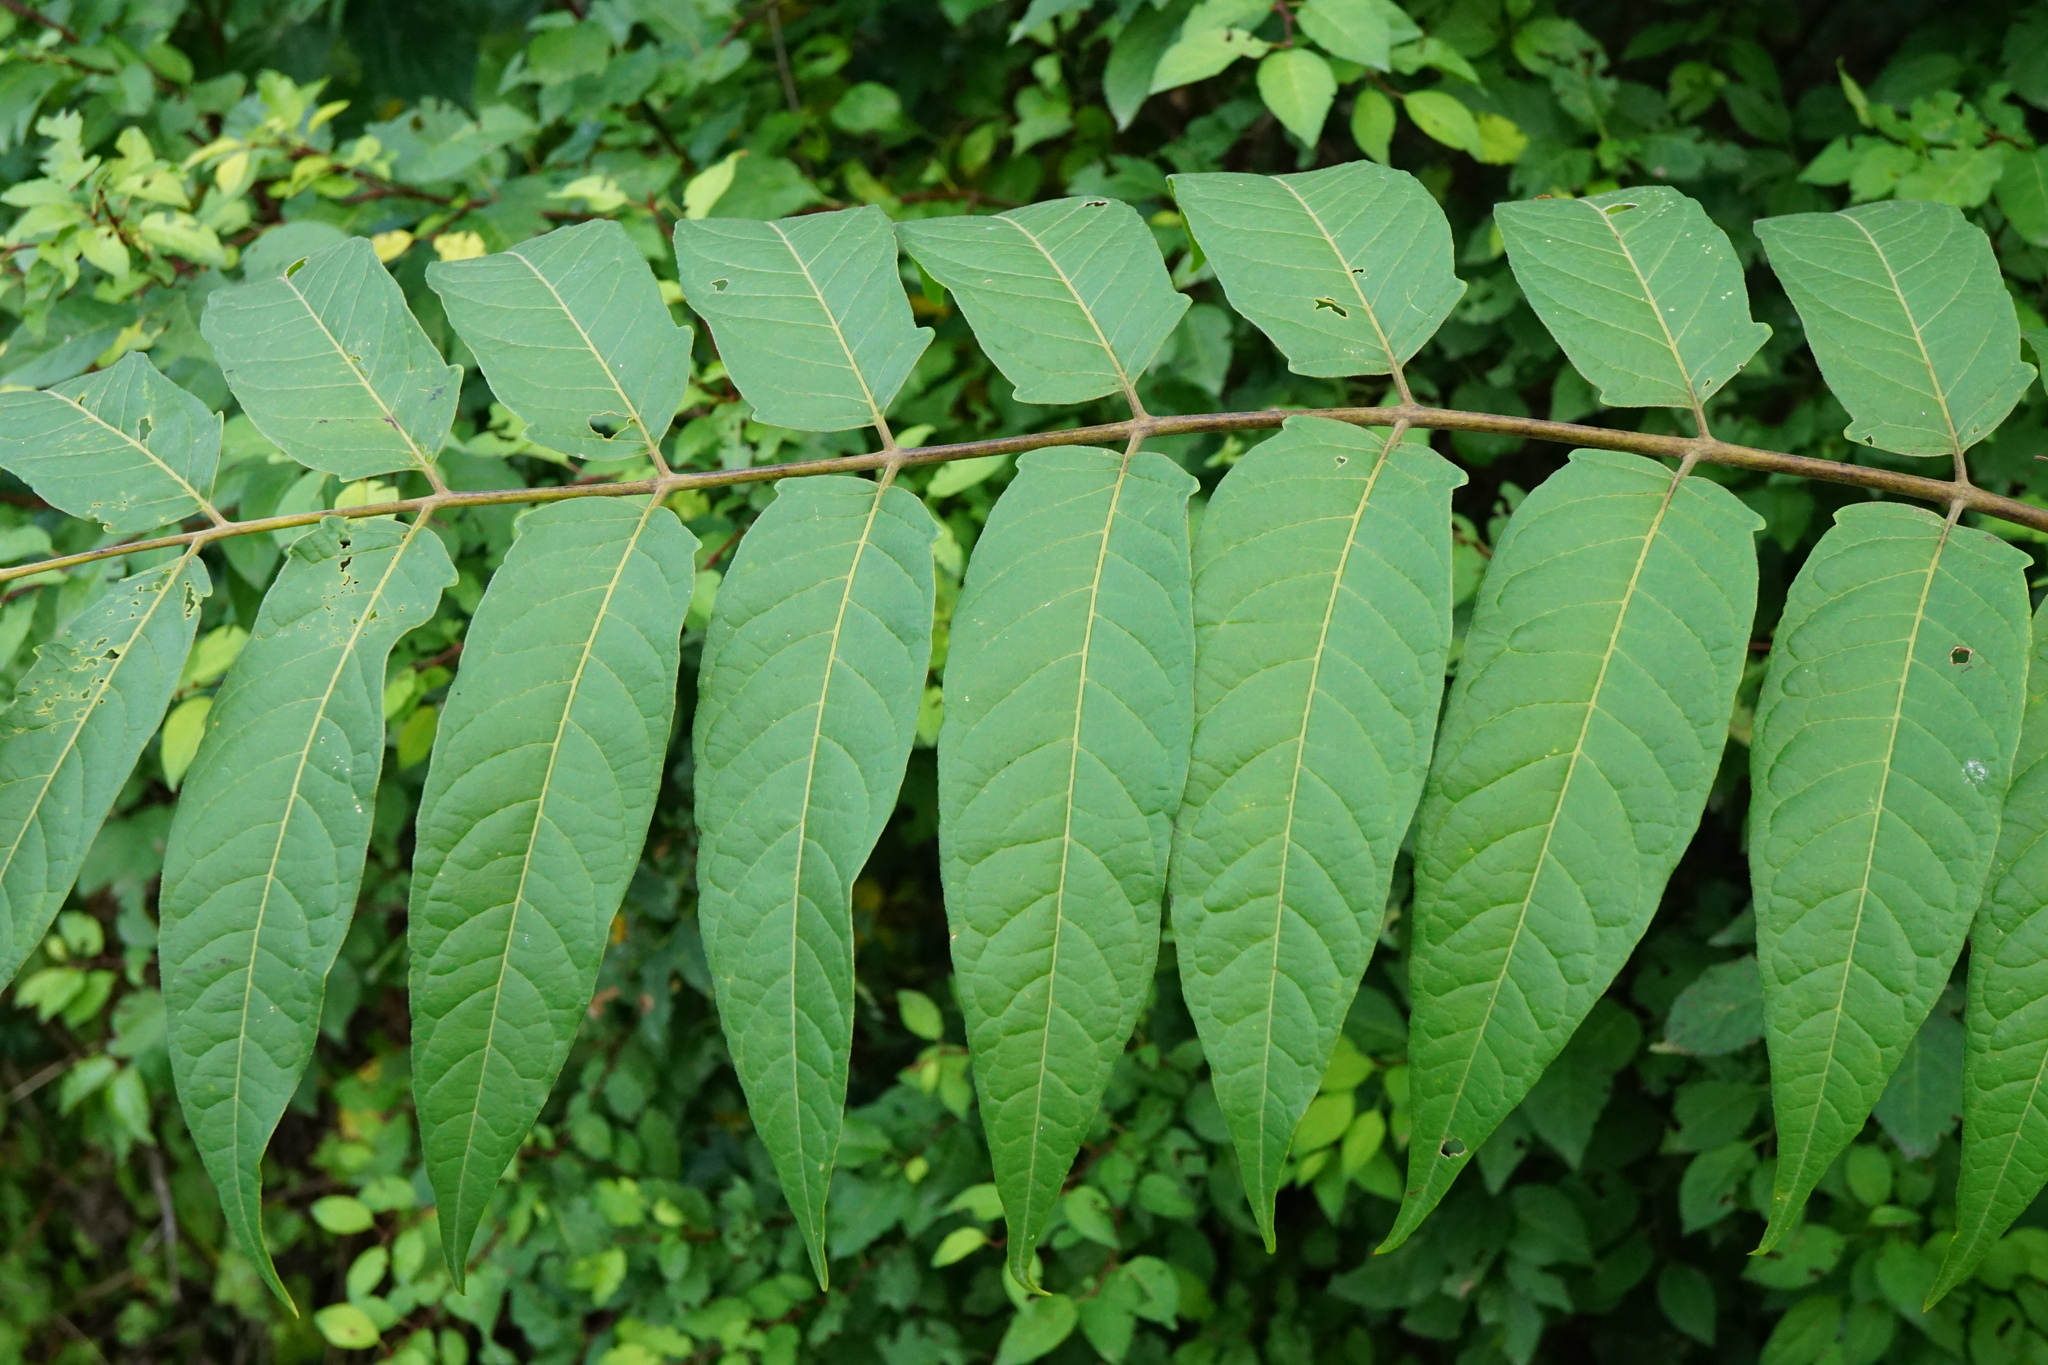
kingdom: Plantae
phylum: Tracheophyta
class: Magnoliopsida
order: Sapindales
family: Simaroubaceae
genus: Ailanthus
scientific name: Ailanthus altissima
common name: Tree-of-heaven
